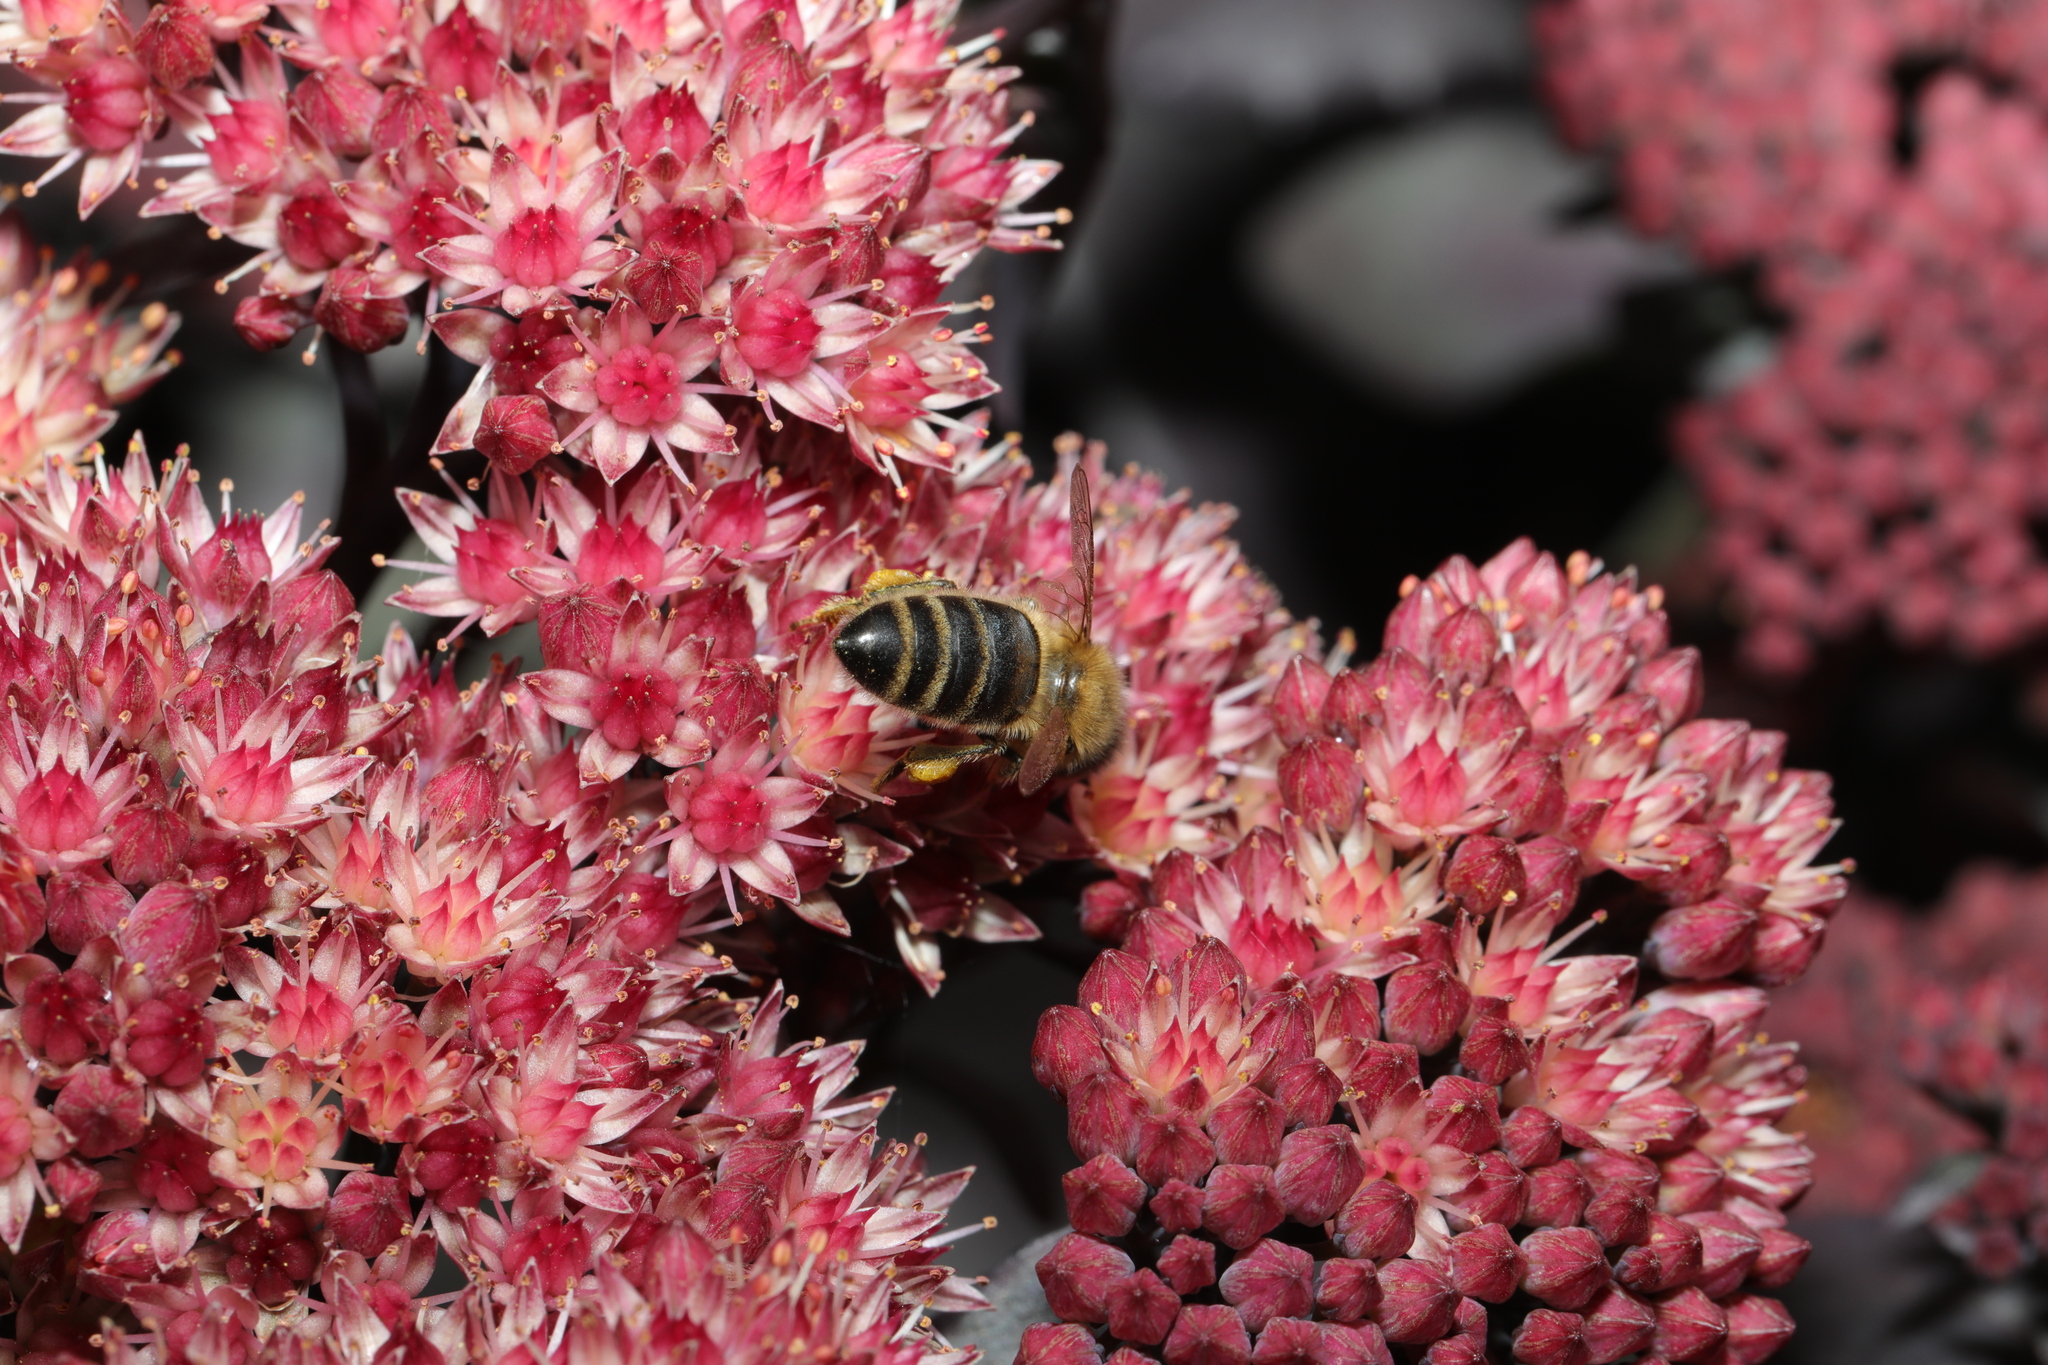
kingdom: Animalia
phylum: Arthropoda
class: Insecta
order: Hymenoptera
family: Apidae
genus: Apis
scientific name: Apis mellifera
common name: Honey bee
